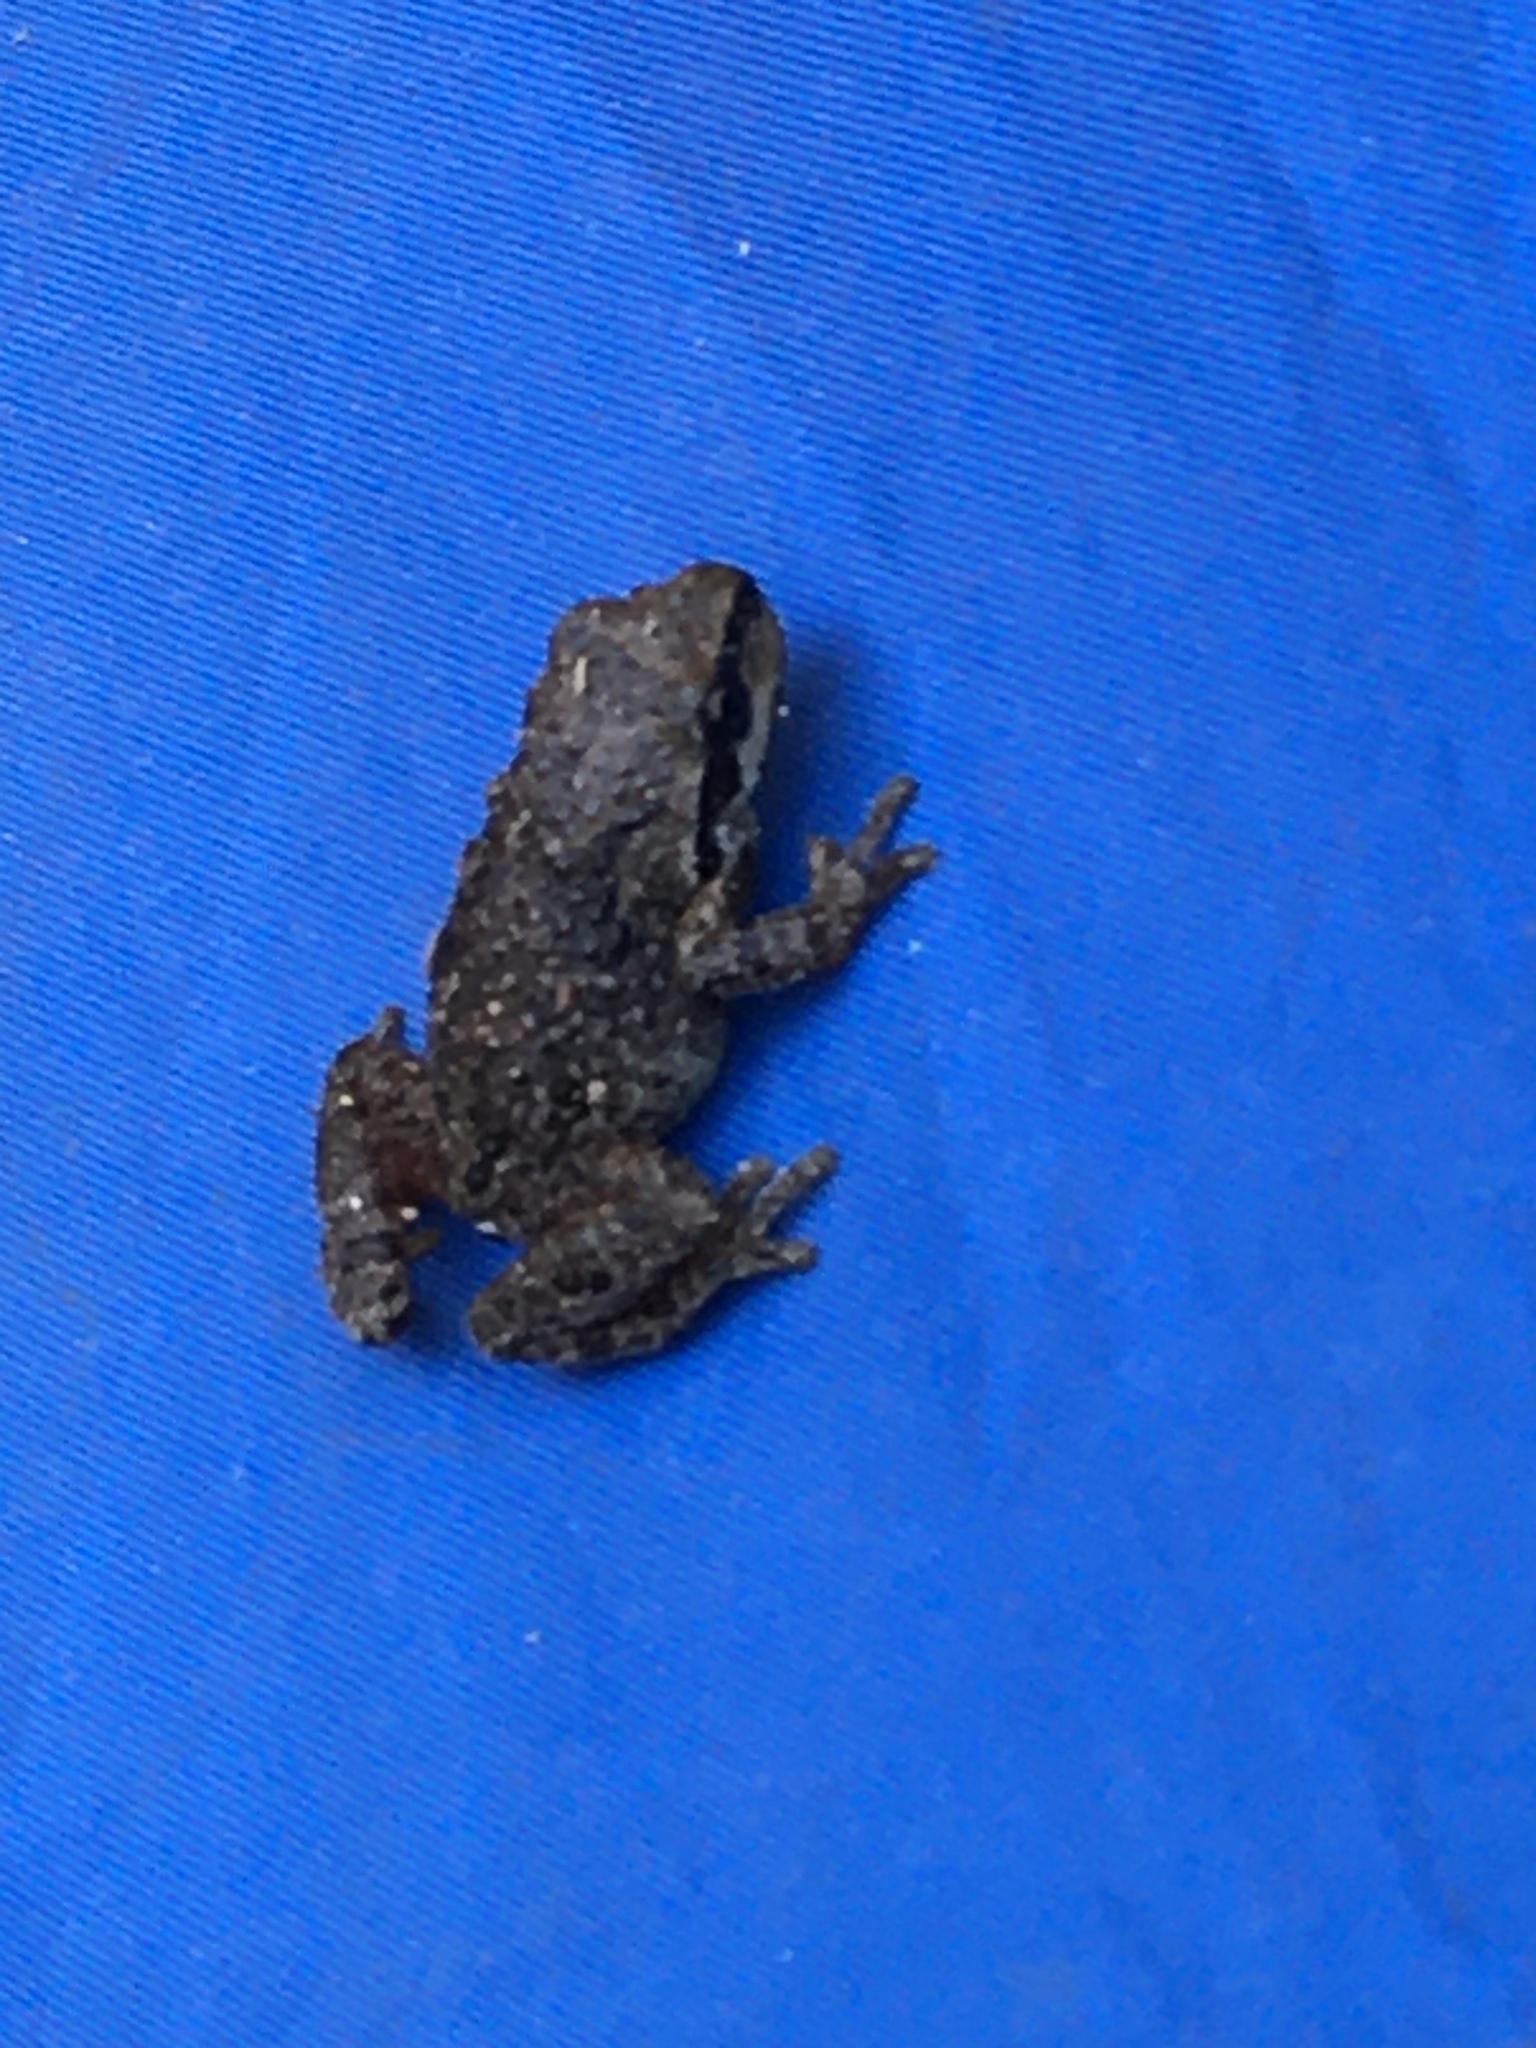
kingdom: Animalia
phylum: Chordata
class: Amphibia
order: Anura
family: Hylidae
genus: Pseudacris
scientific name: Pseudacris regilla
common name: Pacific chorus frog
